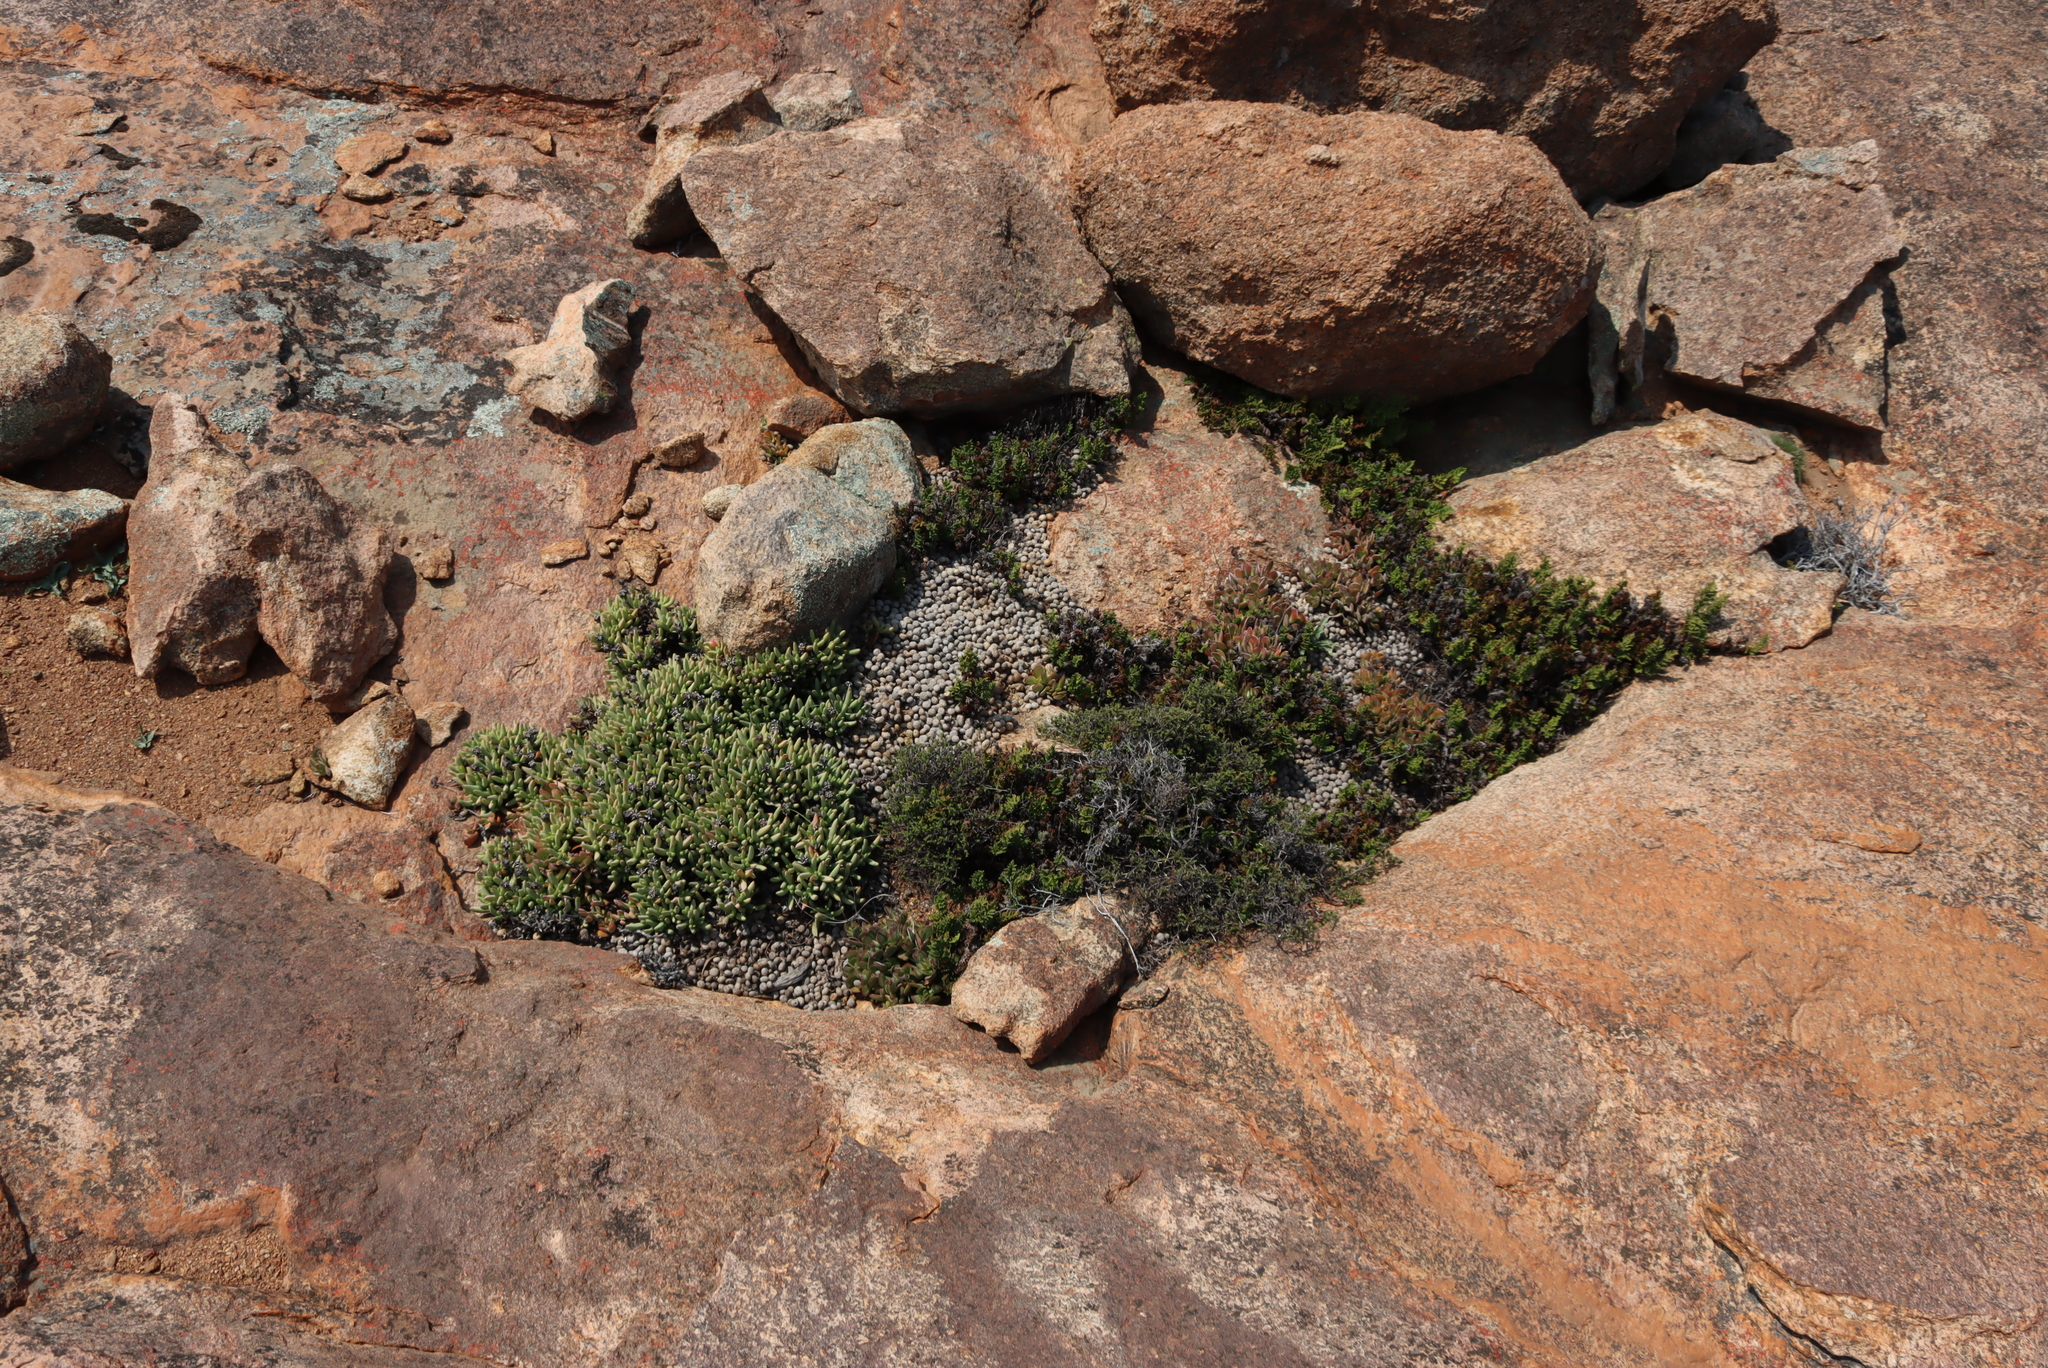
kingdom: Plantae
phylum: Tracheophyta
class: Magnoliopsida
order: Saxifragales
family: Crassulaceae
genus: Crassula
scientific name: Crassula atropurpurea
